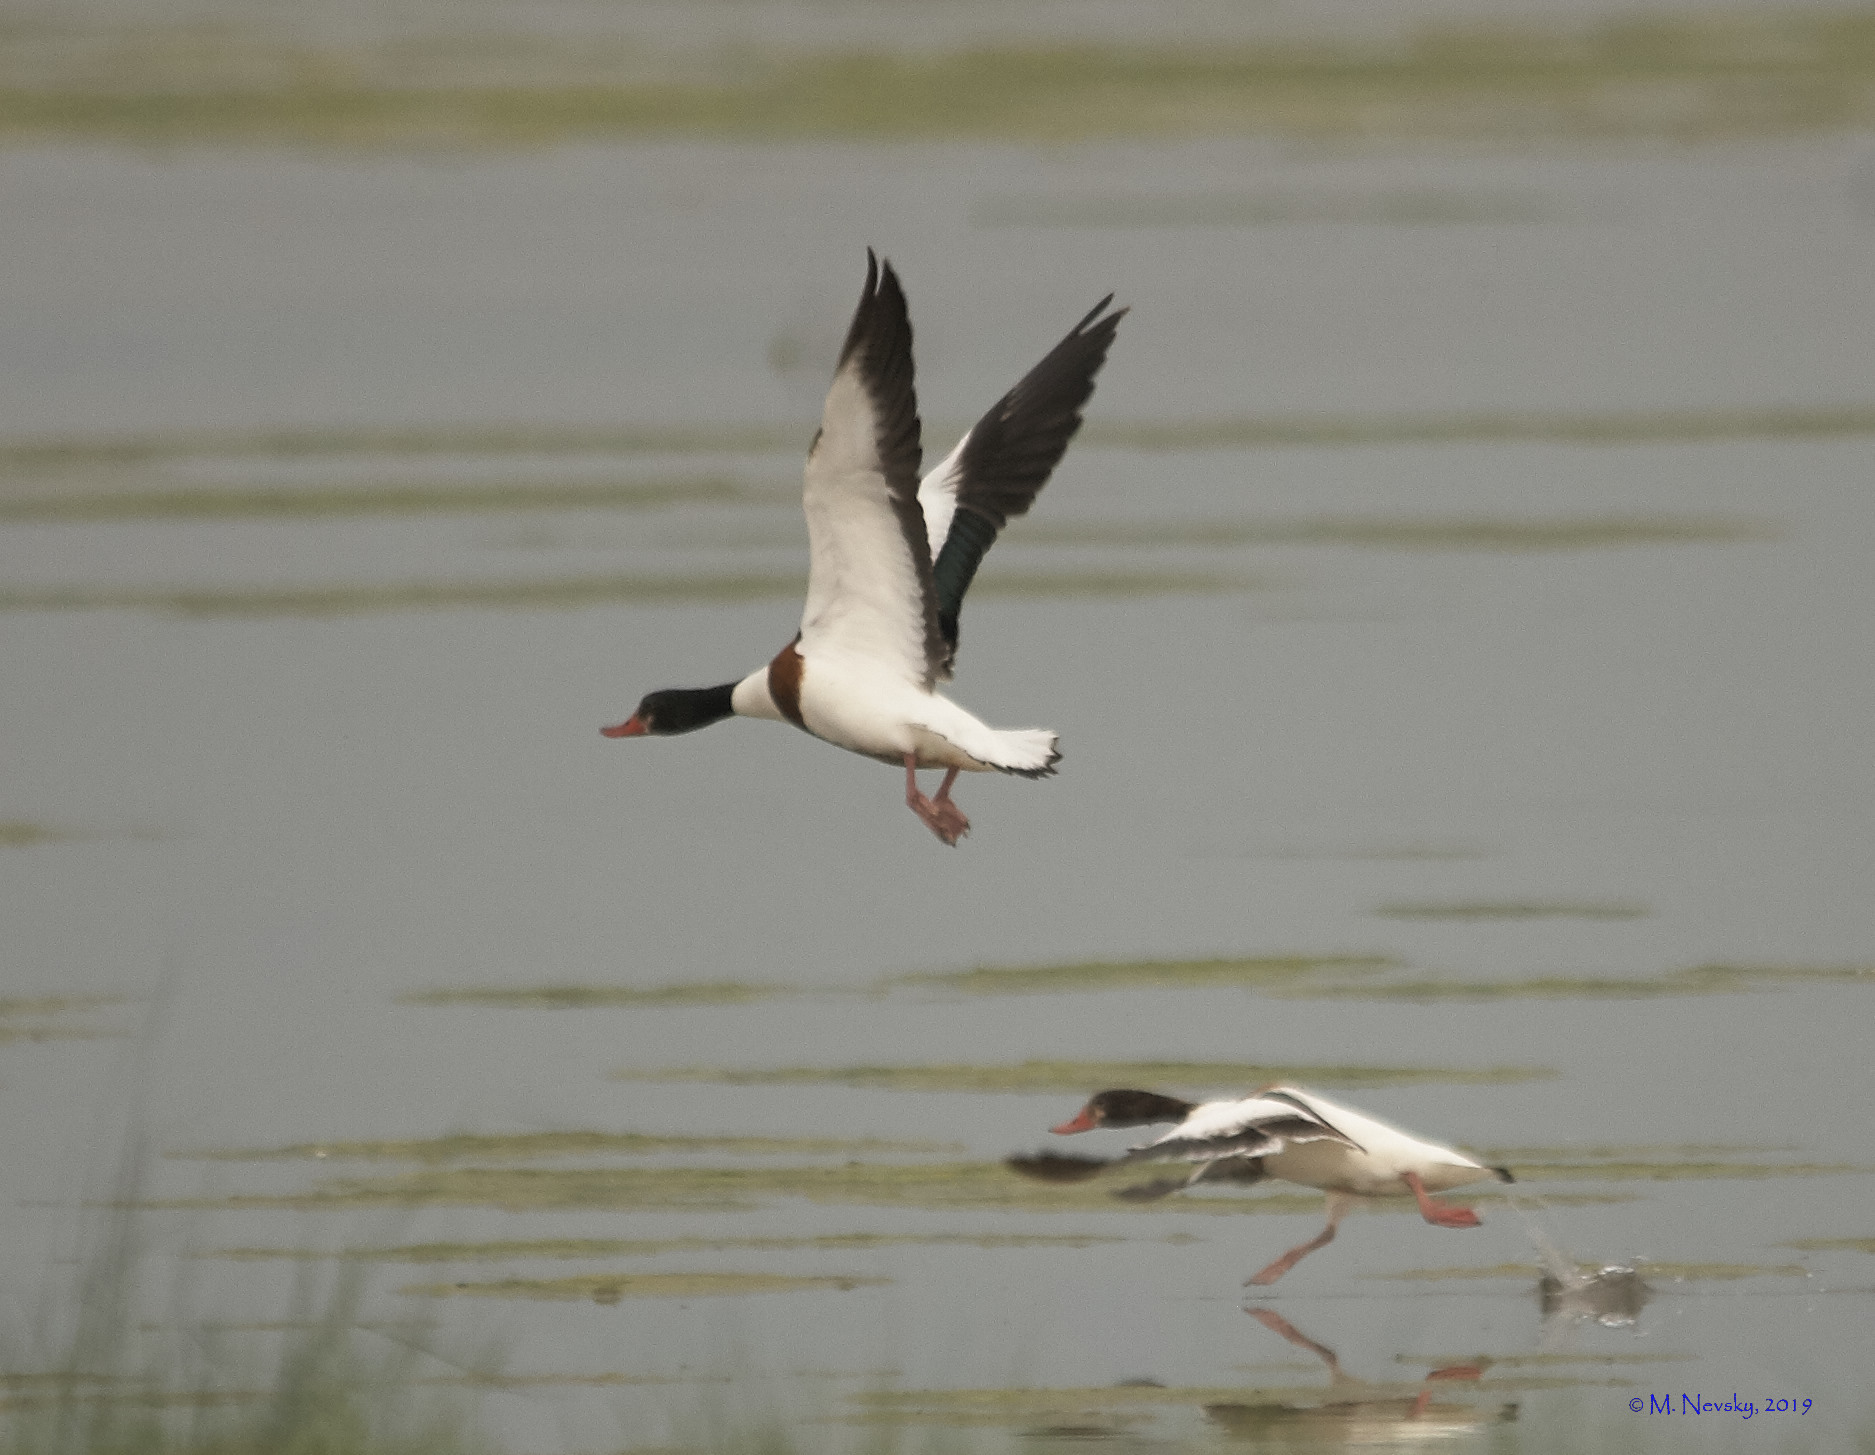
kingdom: Animalia
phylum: Chordata
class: Aves
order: Anseriformes
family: Anatidae
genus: Tadorna
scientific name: Tadorna tadorna
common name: Common shelduck
